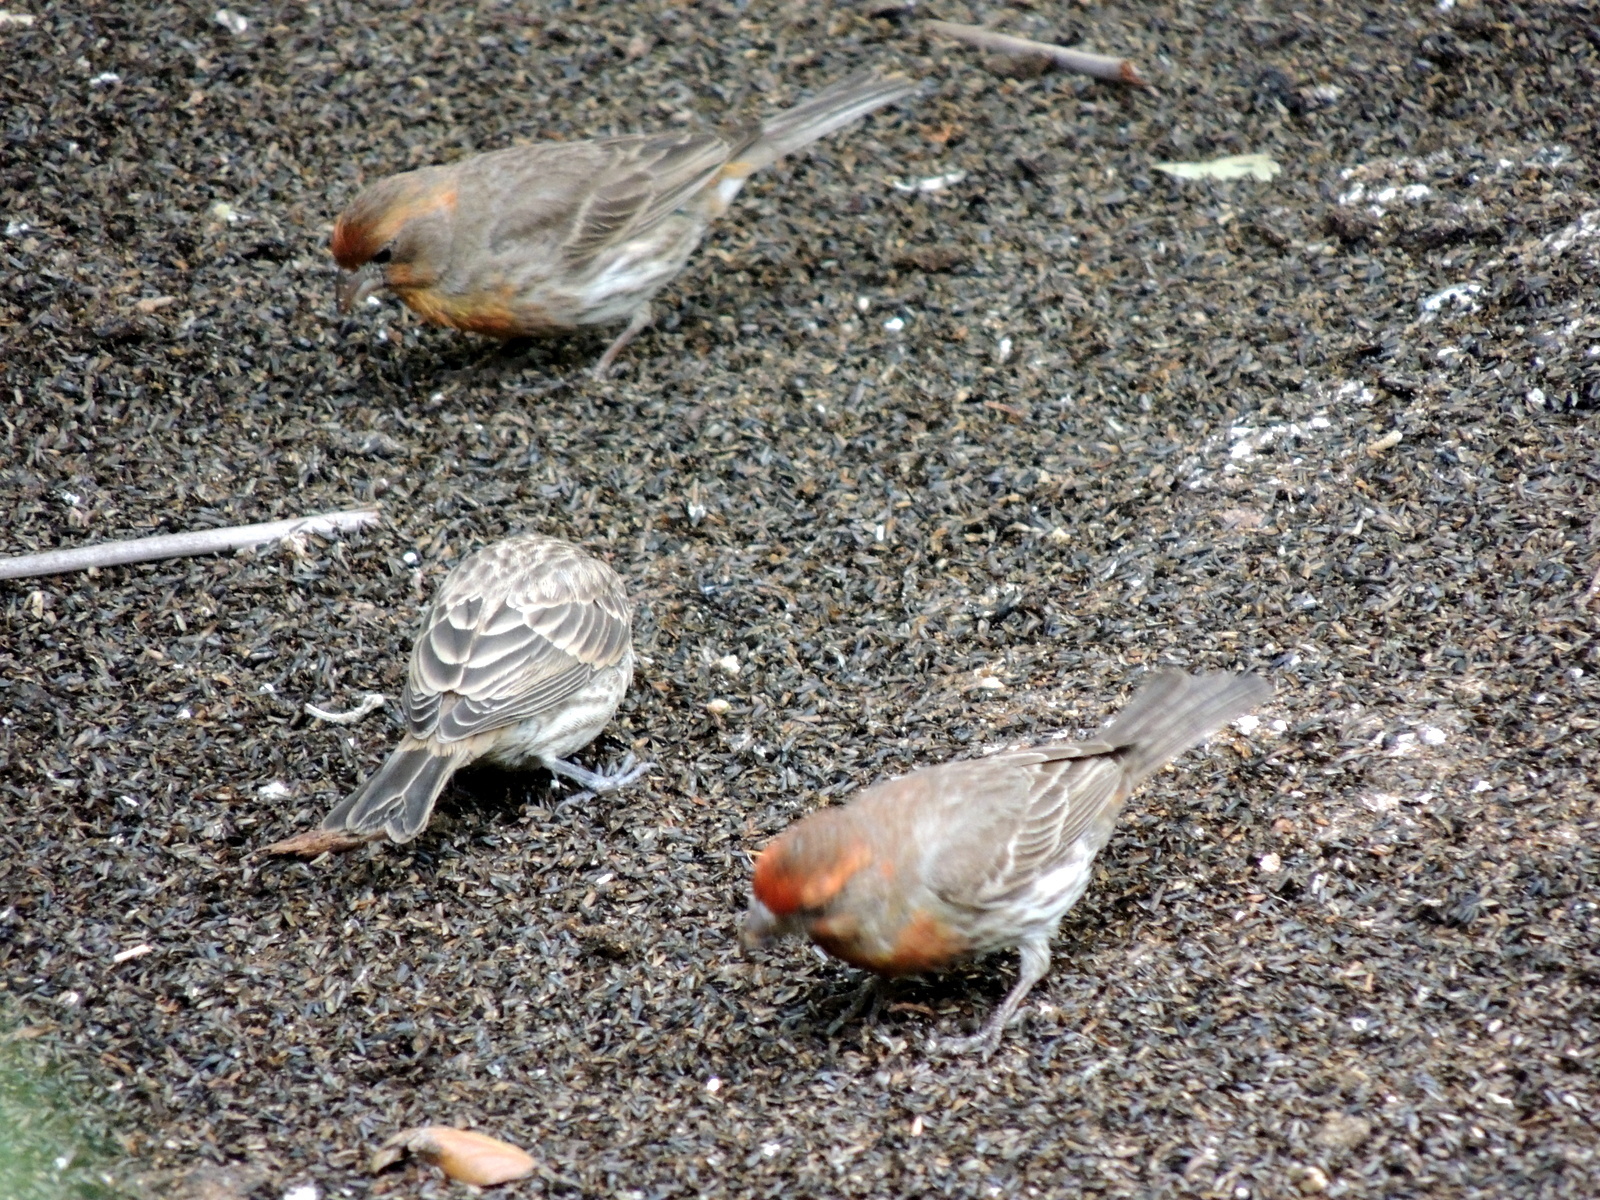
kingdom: Animalia
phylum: Chordata
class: Aves
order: Passeriformes
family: Fringillidae
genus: Haemorhous
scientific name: Haemorhous mexicanus
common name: House finch
